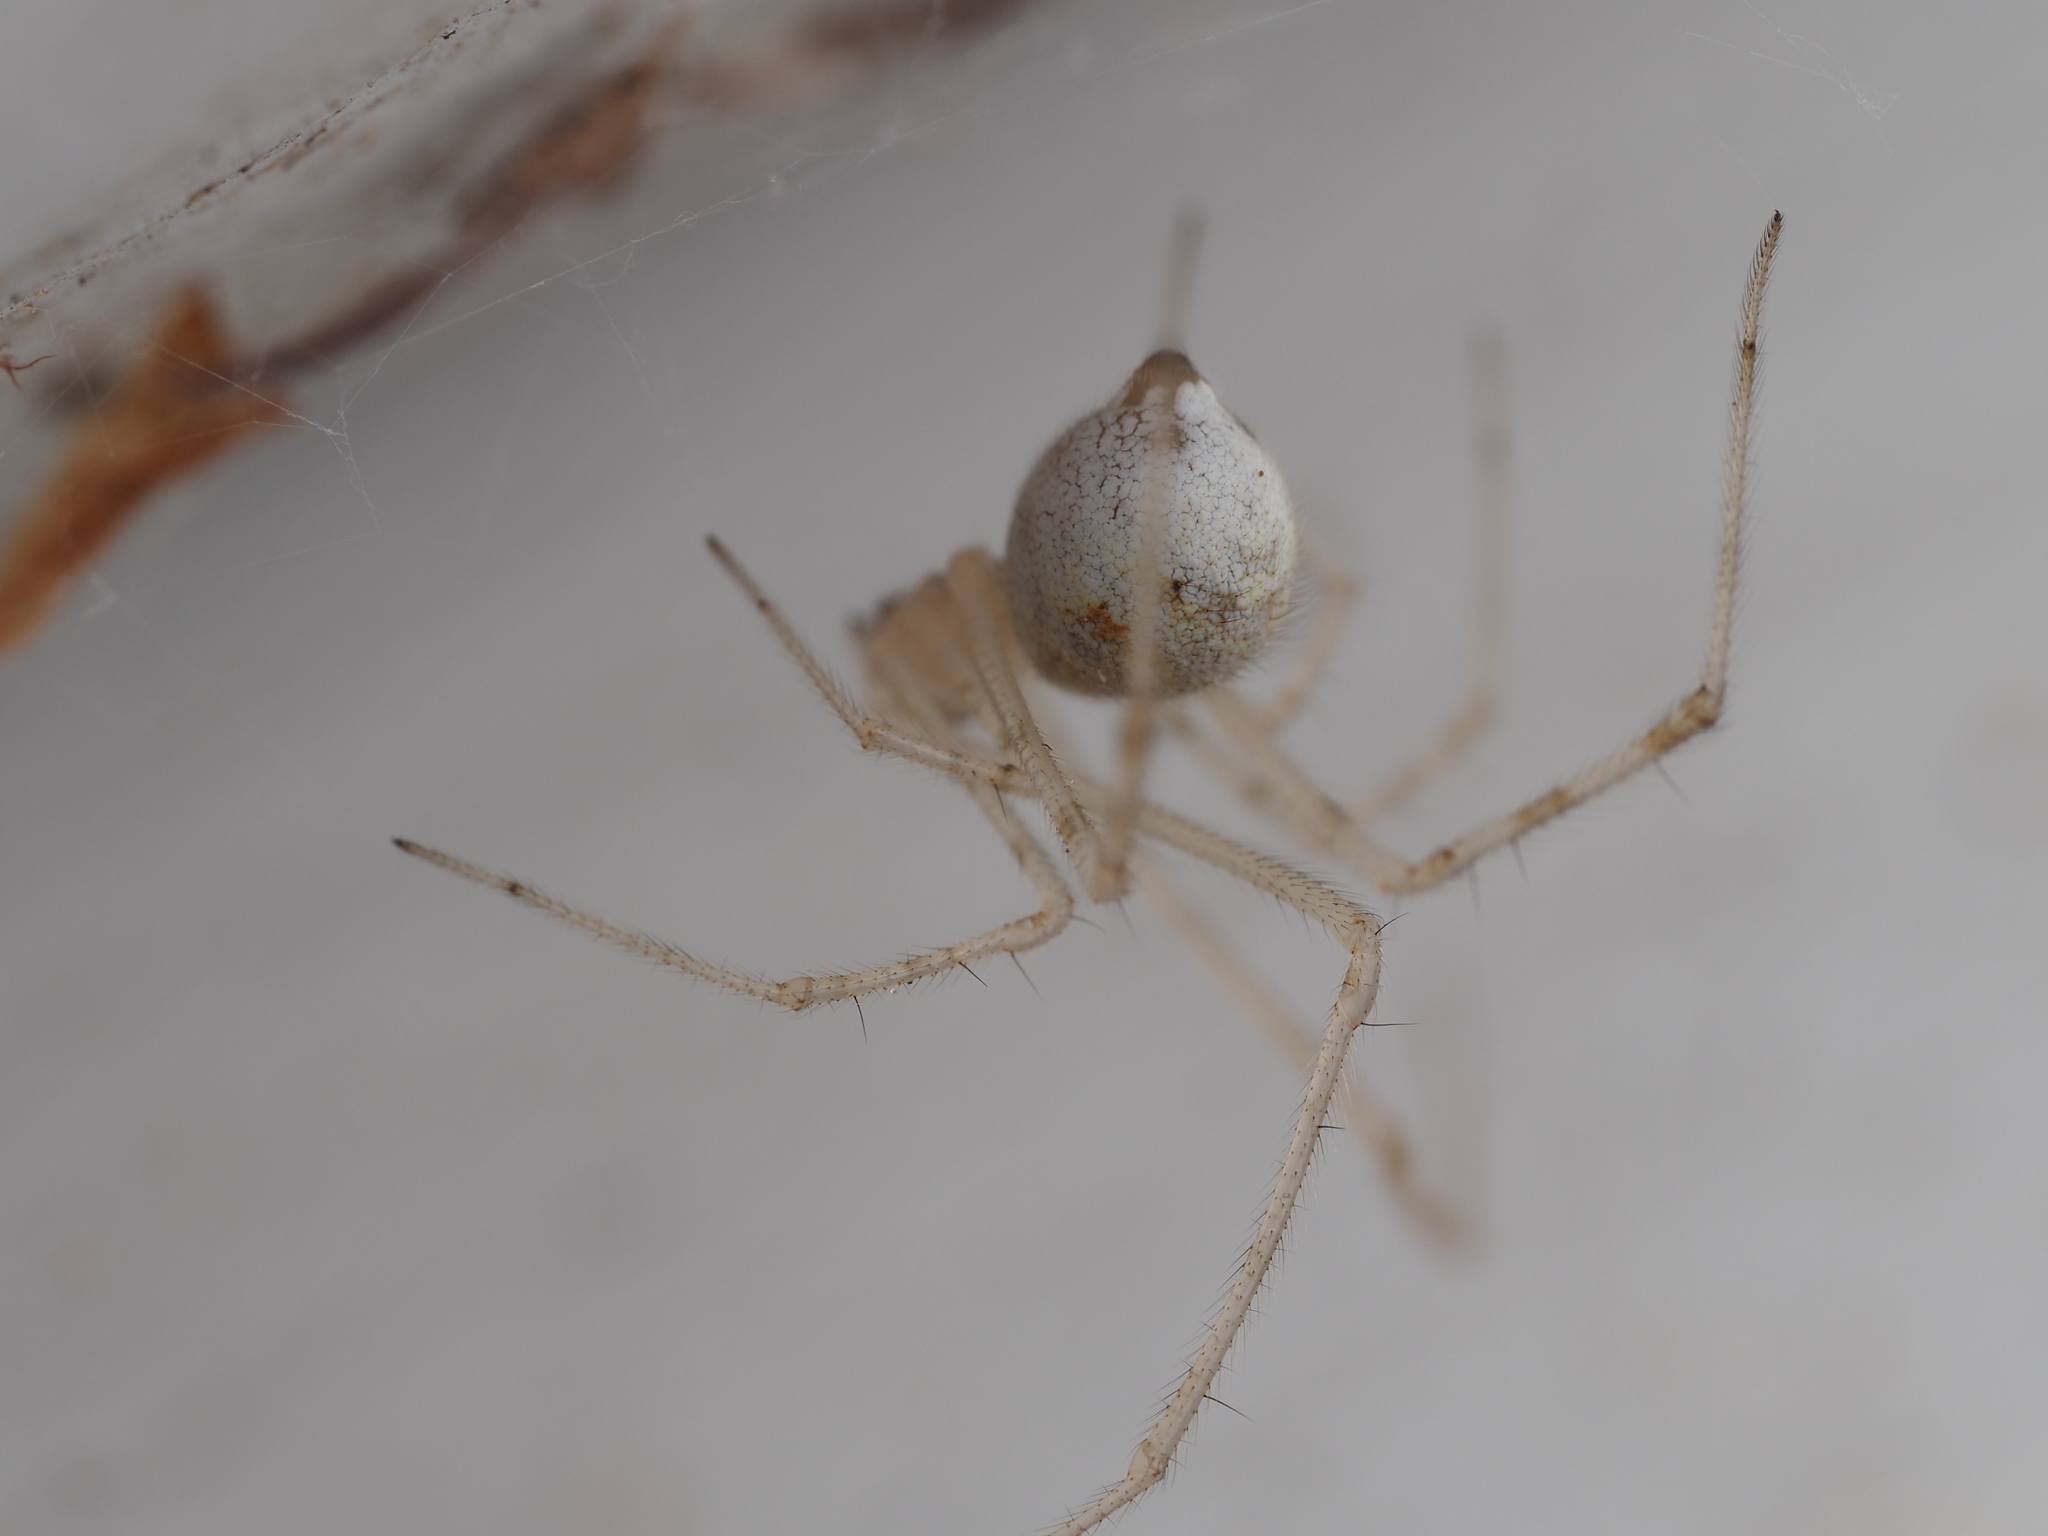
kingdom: Animalia
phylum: Arthropoda
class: Arachnida
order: Araneae
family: Theridiidae
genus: Cryptachaea
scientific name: Cryptachaea gigantipes
